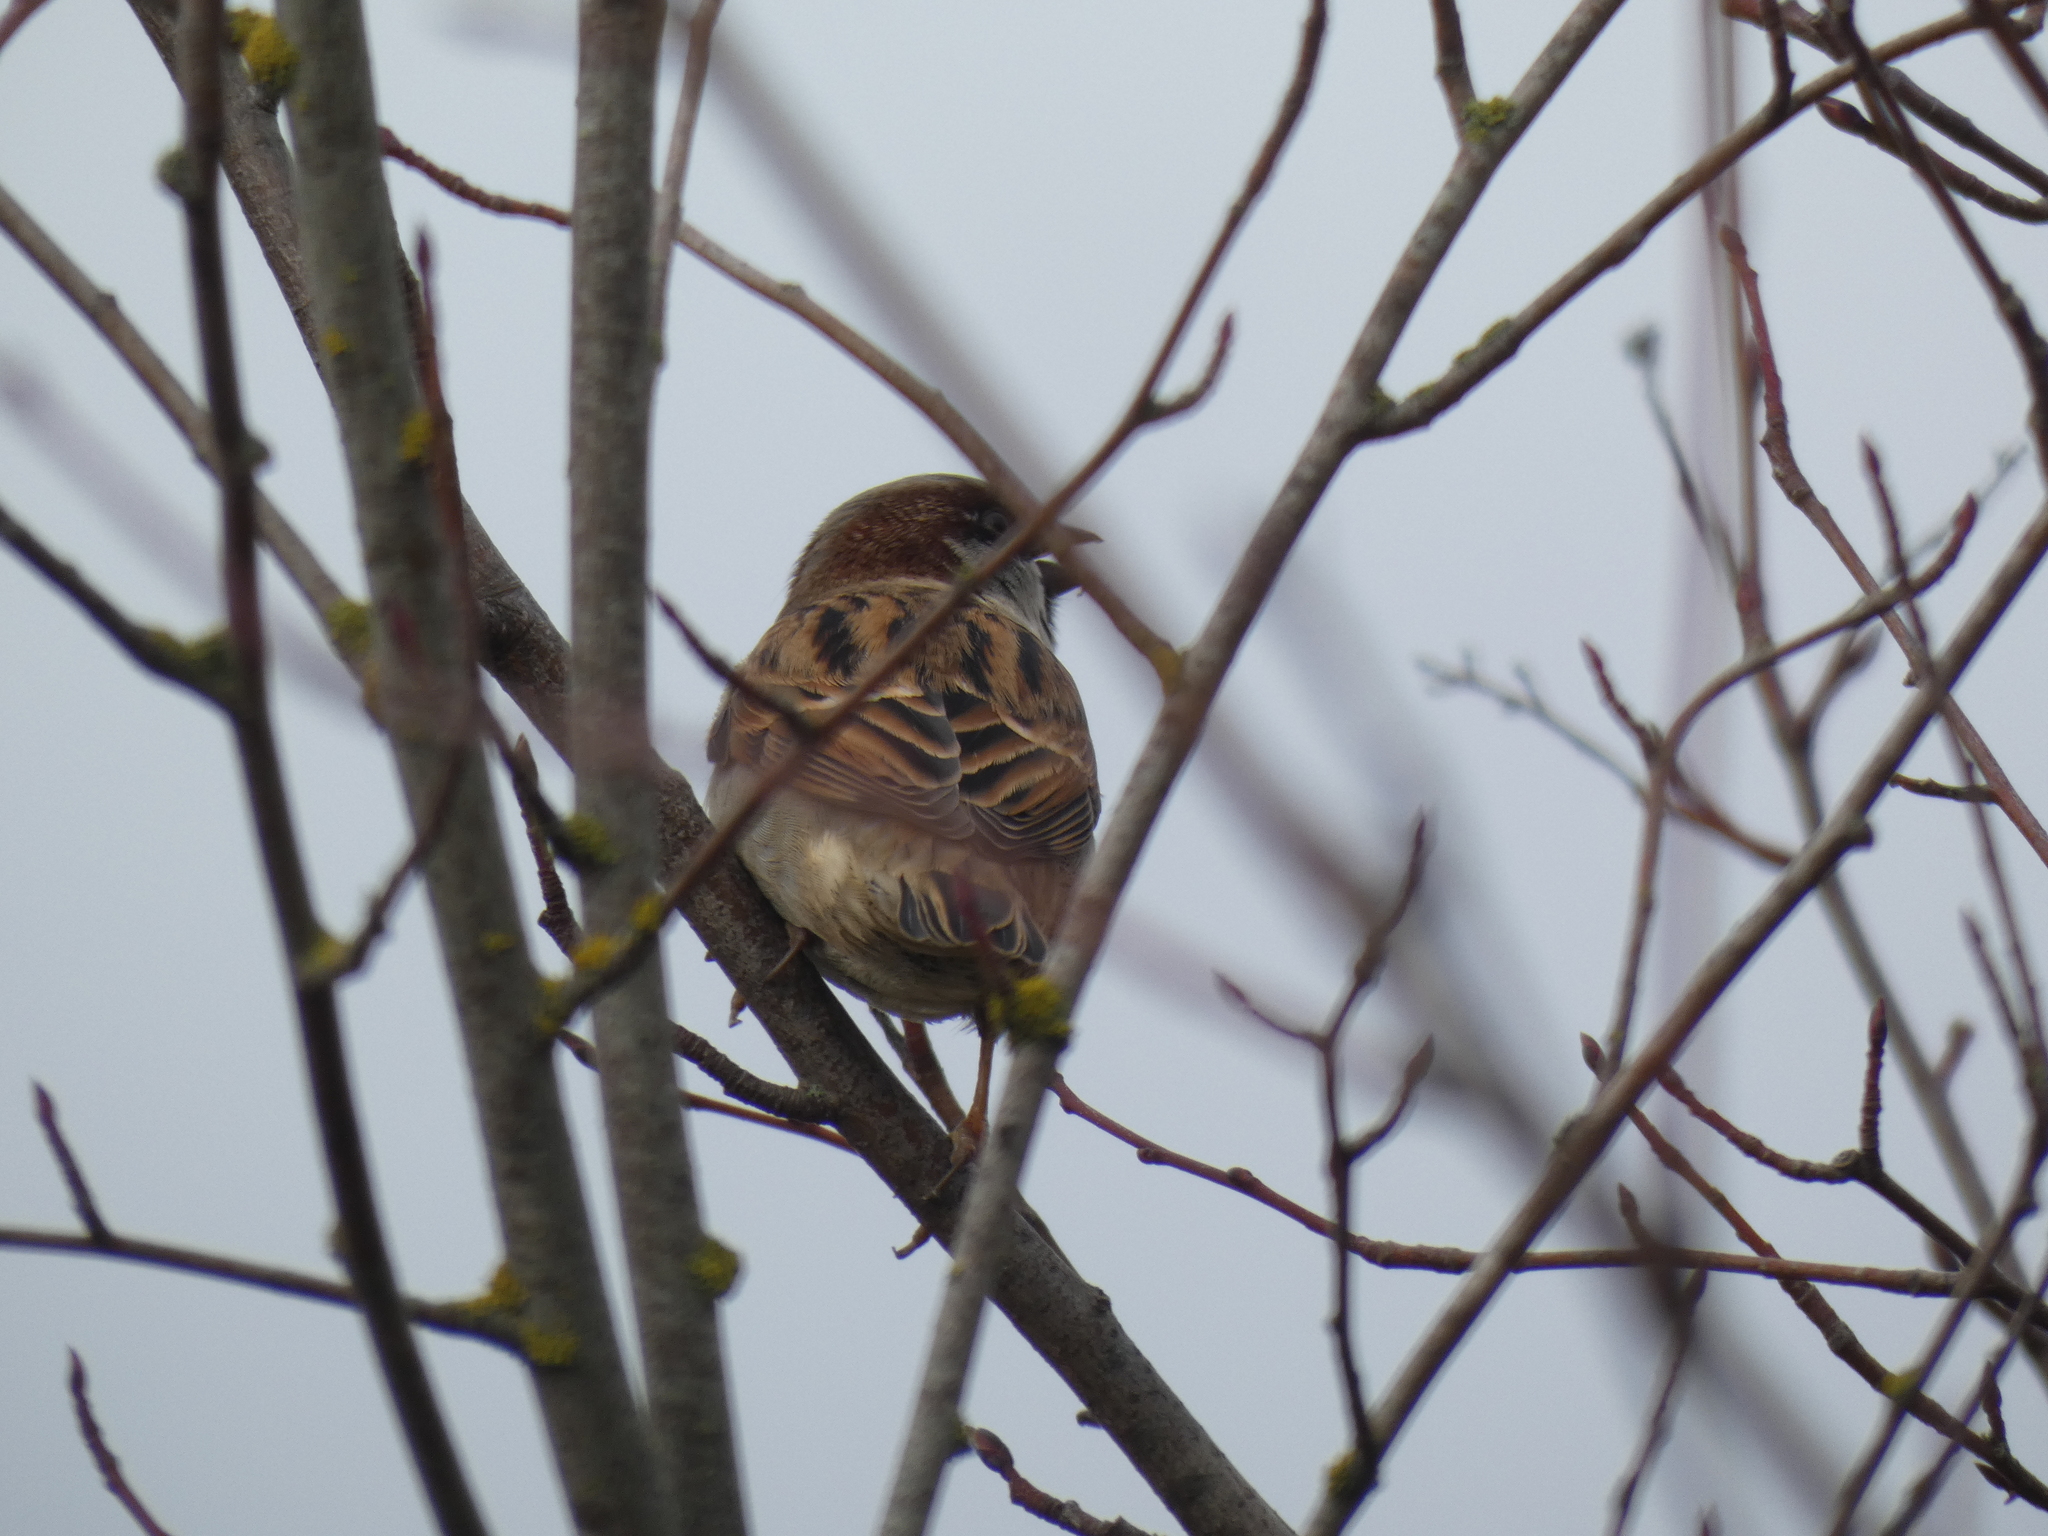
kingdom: Animalia
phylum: Chordata
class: Aves
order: Passeriformes
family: Passeridae
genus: Passer
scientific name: Passer domesticus
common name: House sparrow
